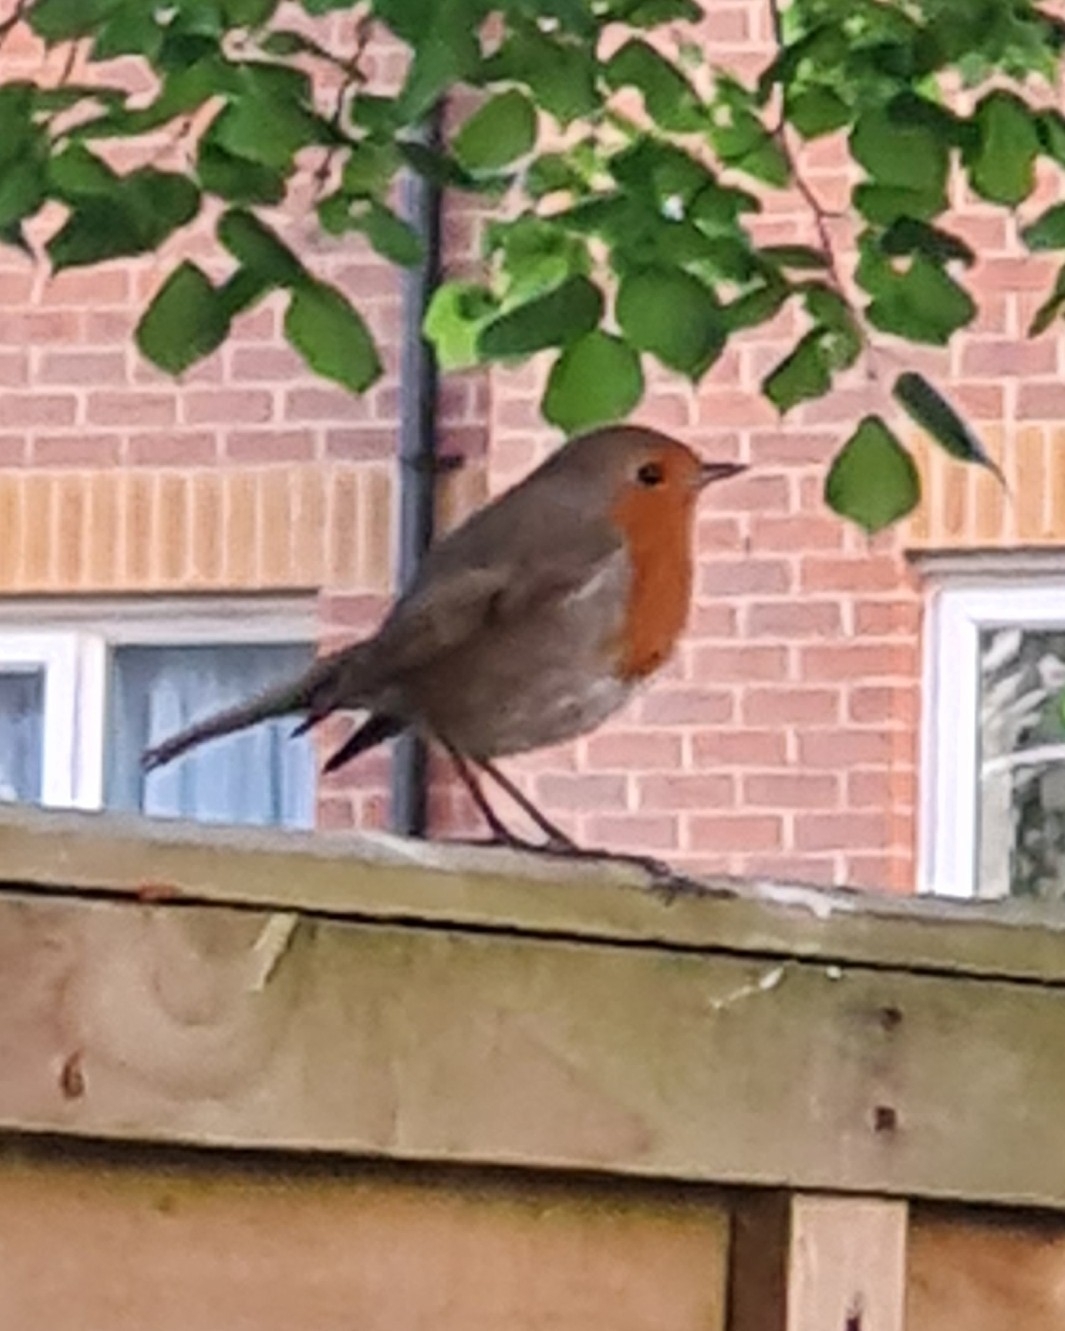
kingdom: Animalia
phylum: Chordata
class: Aves
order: Passeriformes
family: Muscicapidae
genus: Erithacus
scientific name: Erithacus rubecula
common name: European robin
